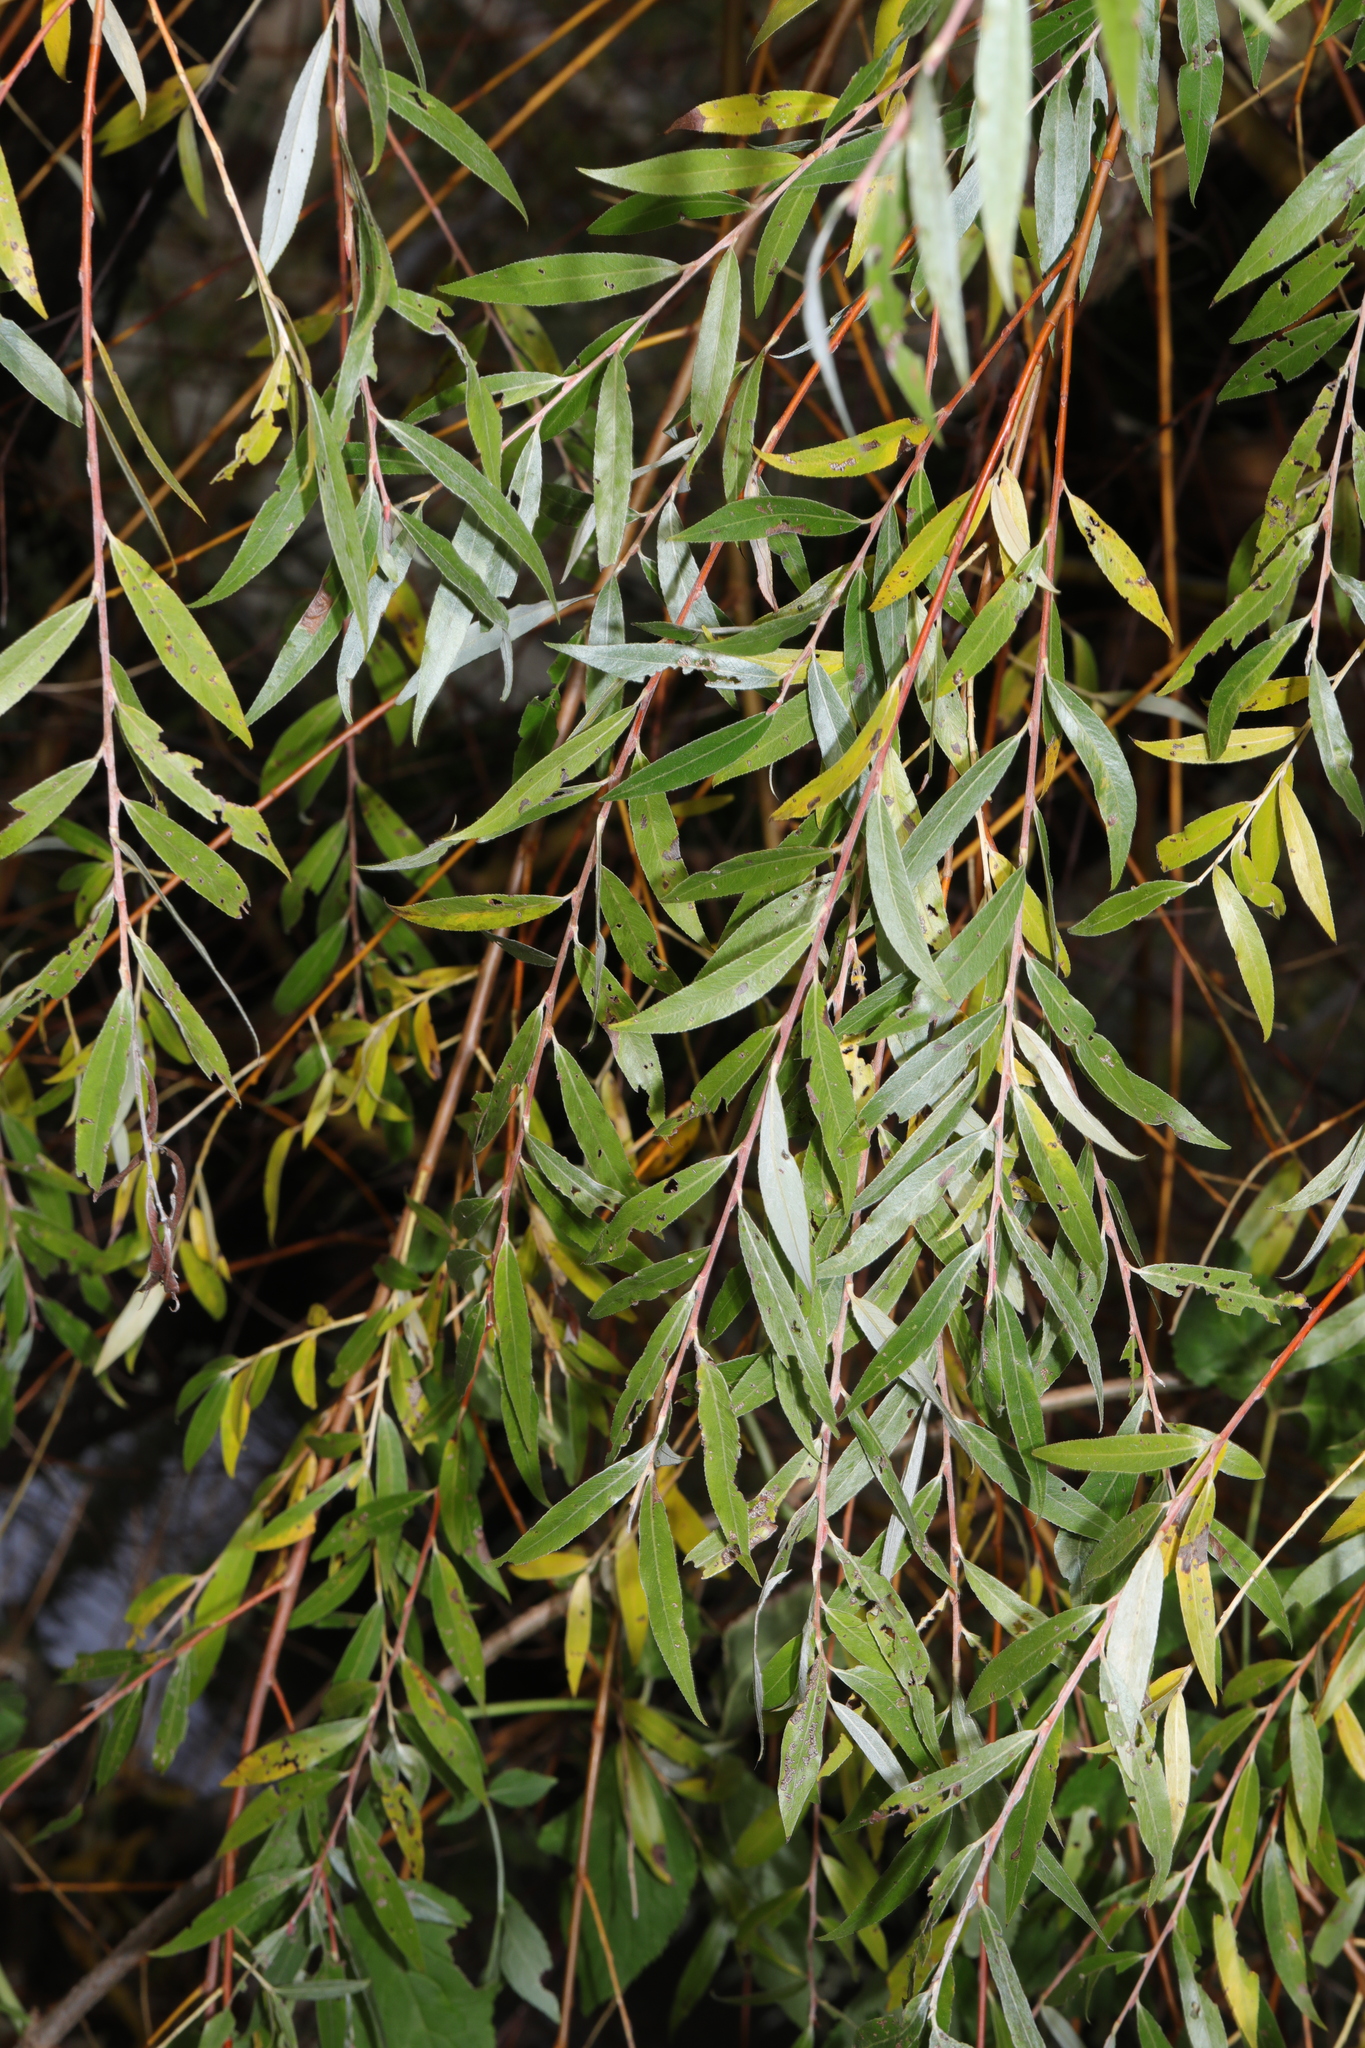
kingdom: Plantae
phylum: Tracheophyta
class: Magnoliopsida
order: Malpighiales
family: Salicaceae
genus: Salix
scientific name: Salix alba
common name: White willow
